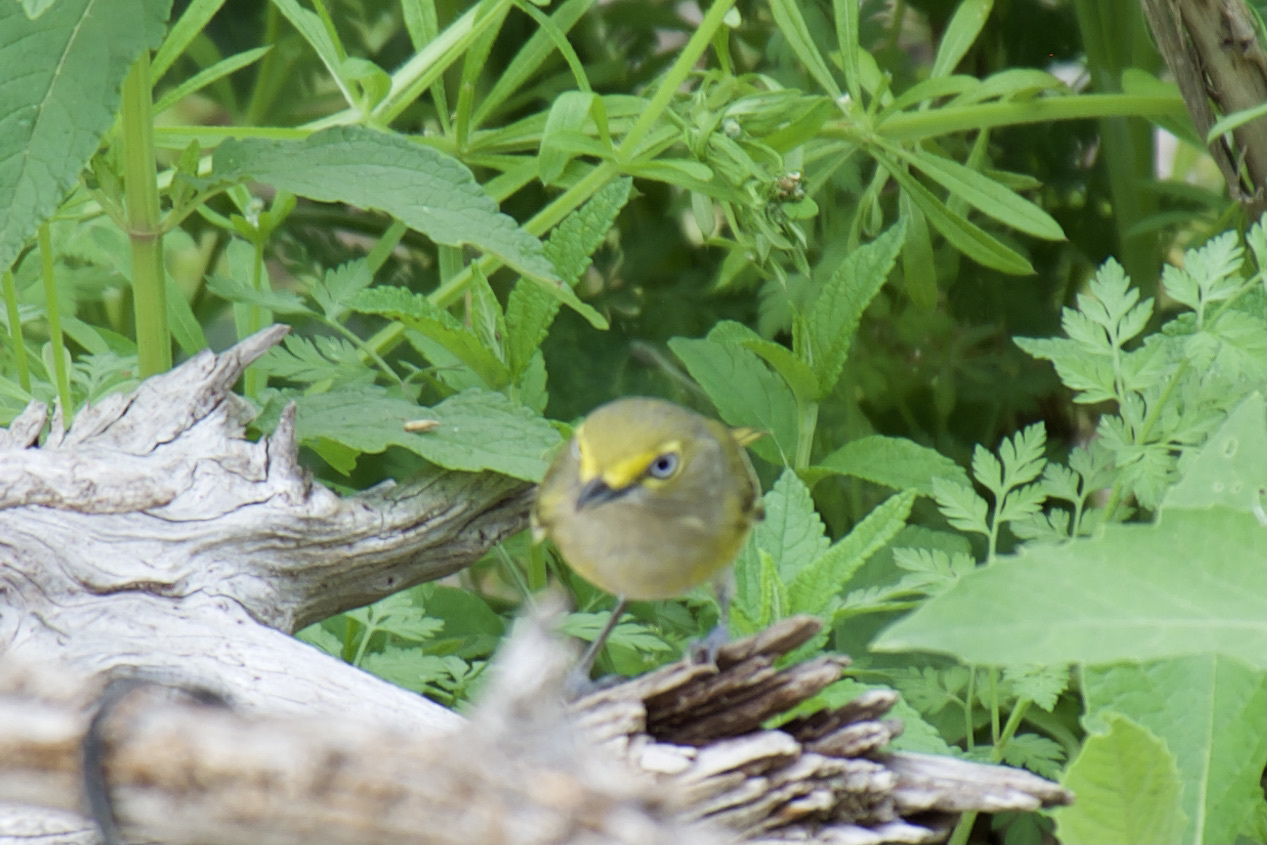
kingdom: Animalia
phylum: Chordata
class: Aves
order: Passeriformes
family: Vireonidae
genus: Vireo
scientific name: Vireo griseus
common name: White-eyed vireo
